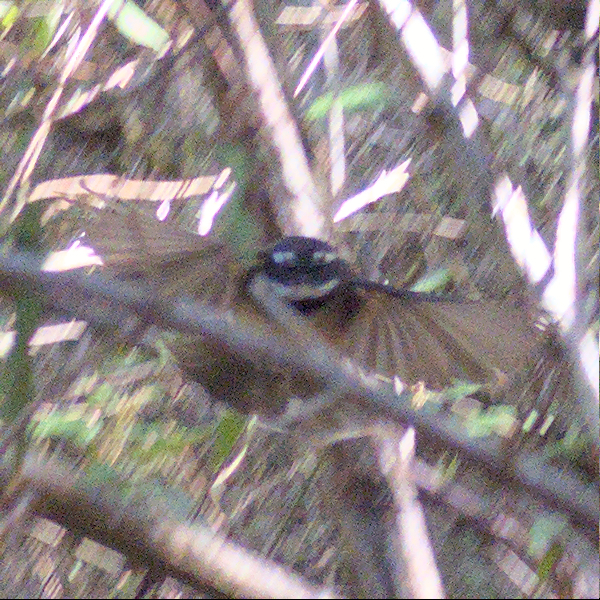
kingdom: Animalia
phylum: Chordata
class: Aves
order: Passeriformes
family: Rhipiduridae
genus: Rhipidura
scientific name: Rhipidura albiscapa
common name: Grey fantail
